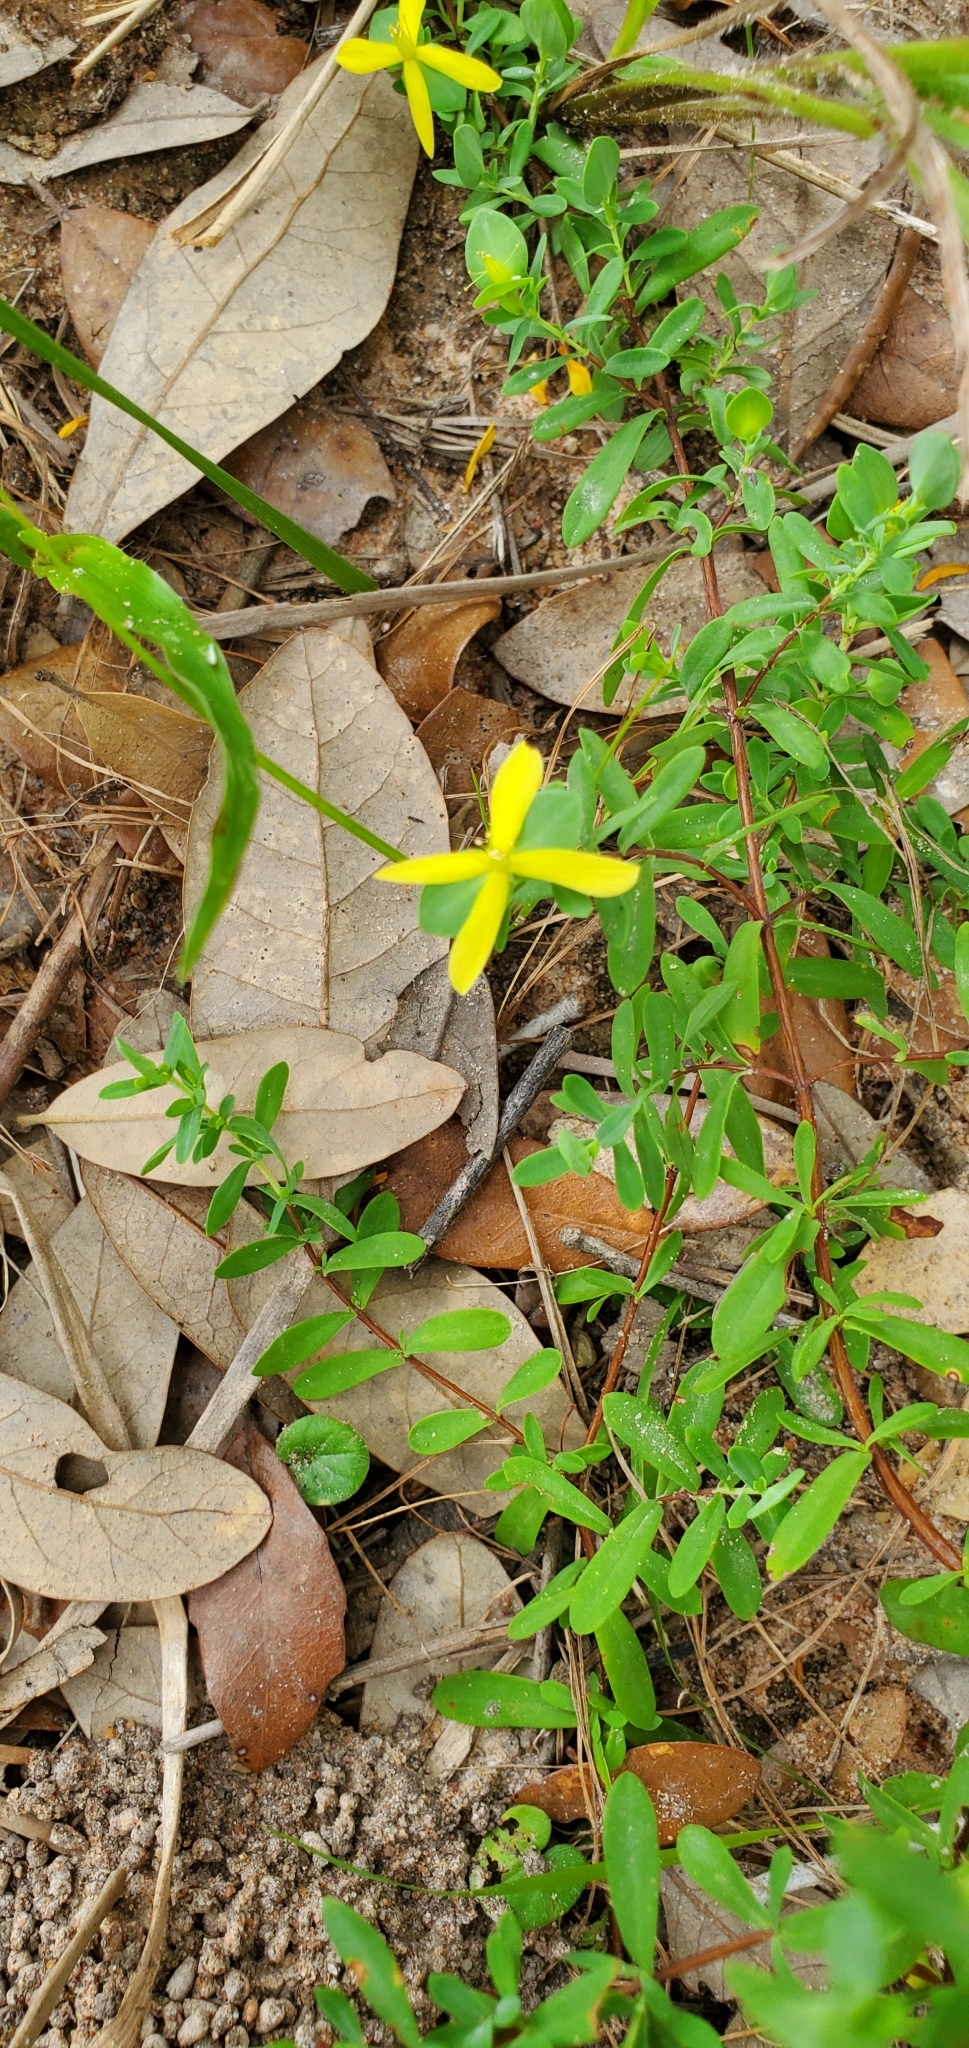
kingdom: Plantae
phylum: Tracheophyta
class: Magnoliopsida
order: Malpighiales
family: Hypericaceae
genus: Hypericum
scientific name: Hypericum hypericoides
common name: St. andrew's cross
